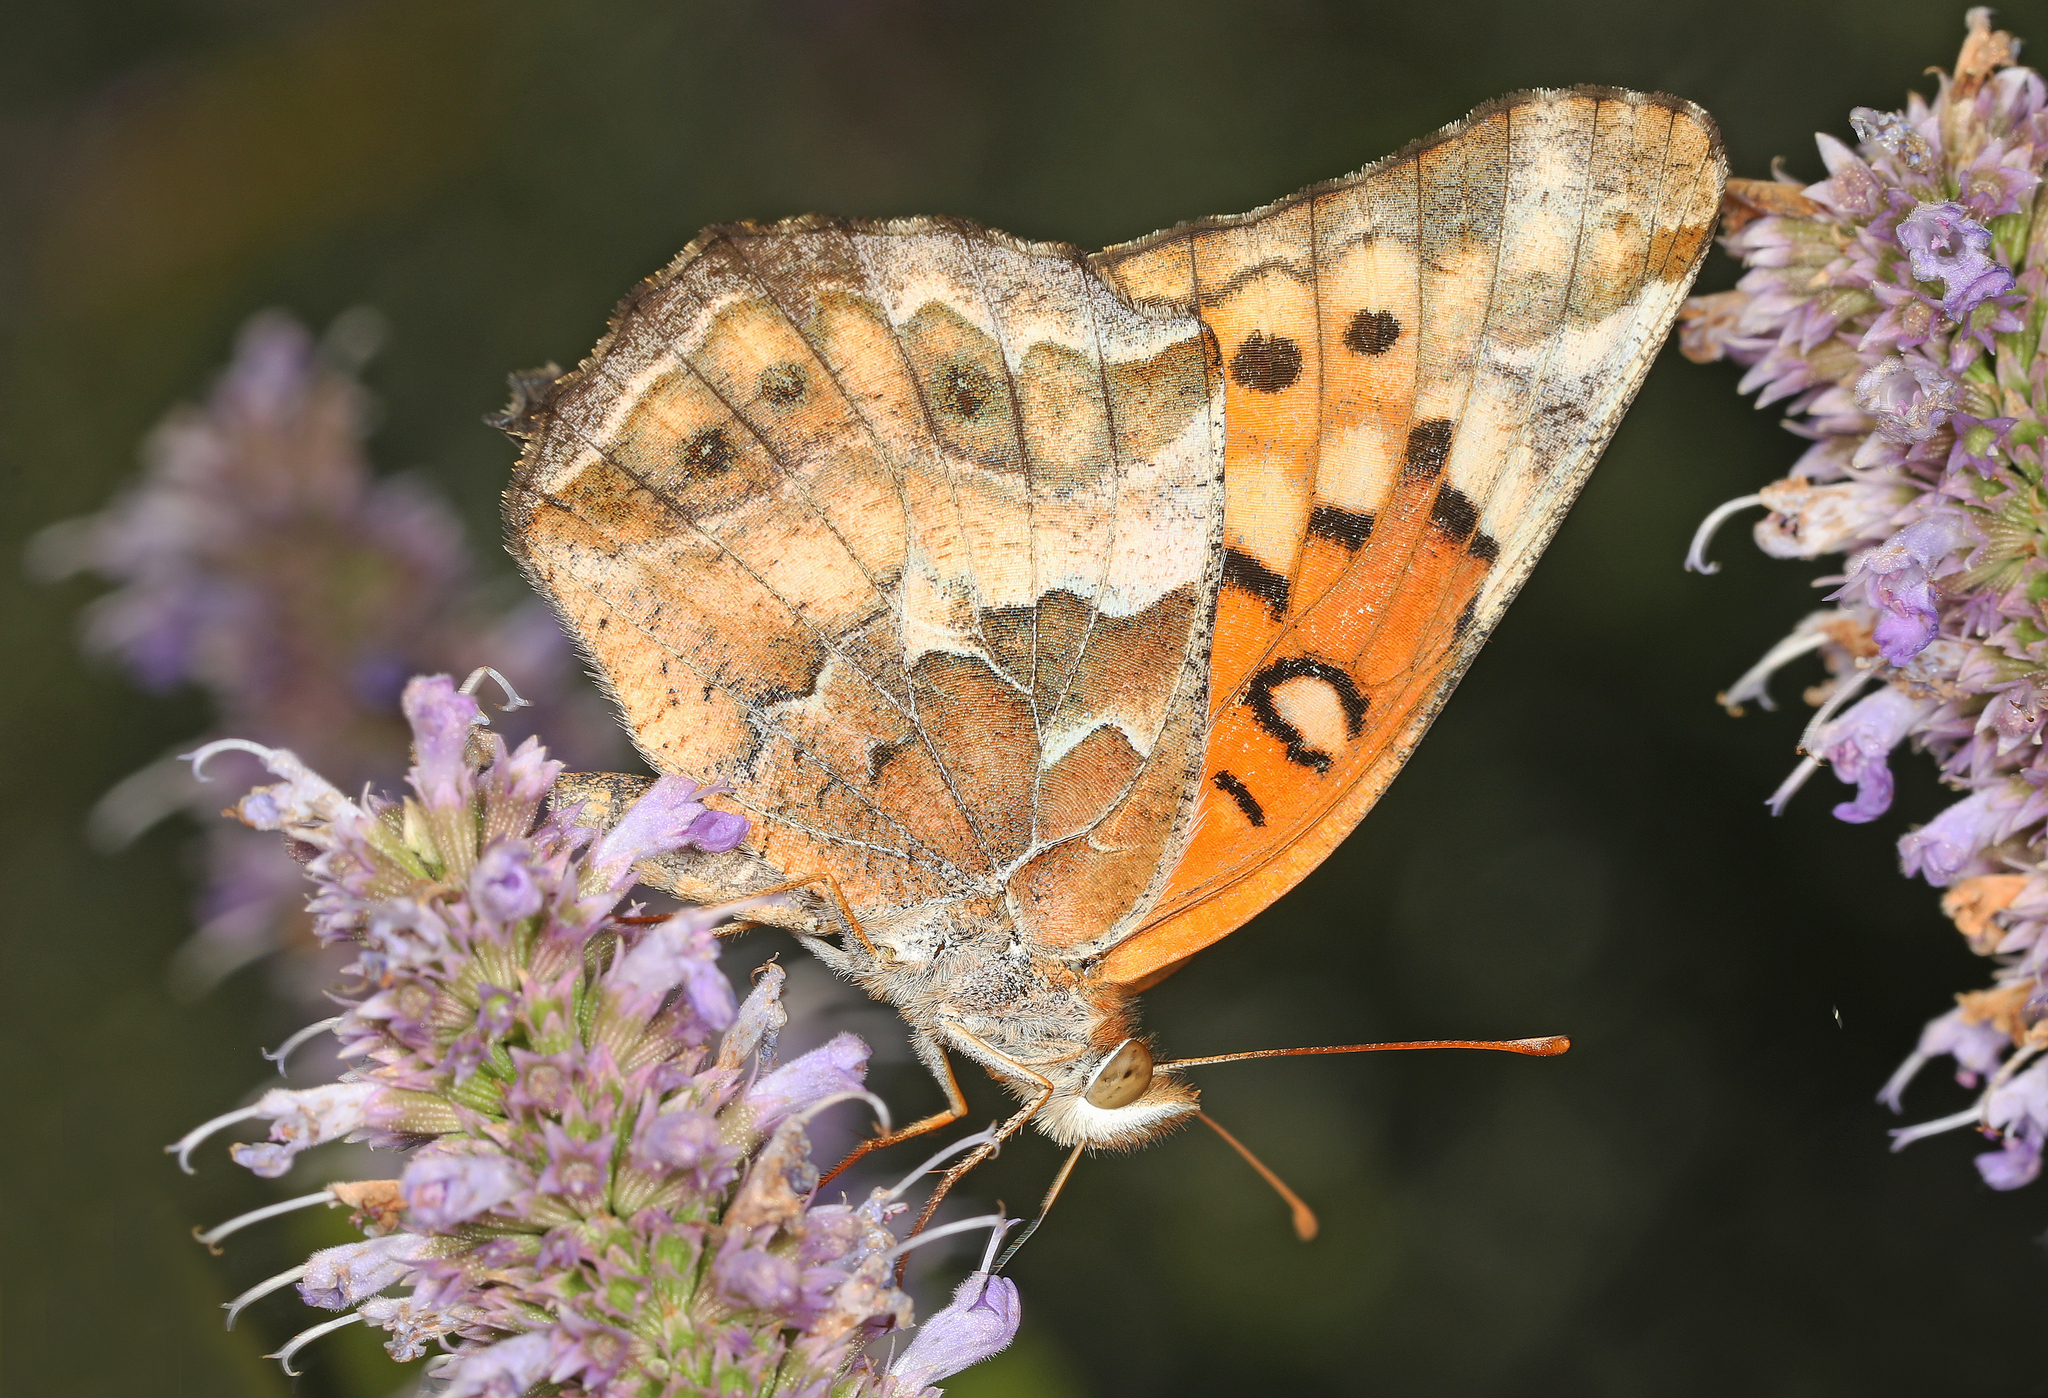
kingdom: Animalia
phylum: Arthropoda
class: Insecta
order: Lepidoptera
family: Nymphalidae
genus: Euptoieta
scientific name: Euptoieta claudia
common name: Variegated fritillary
